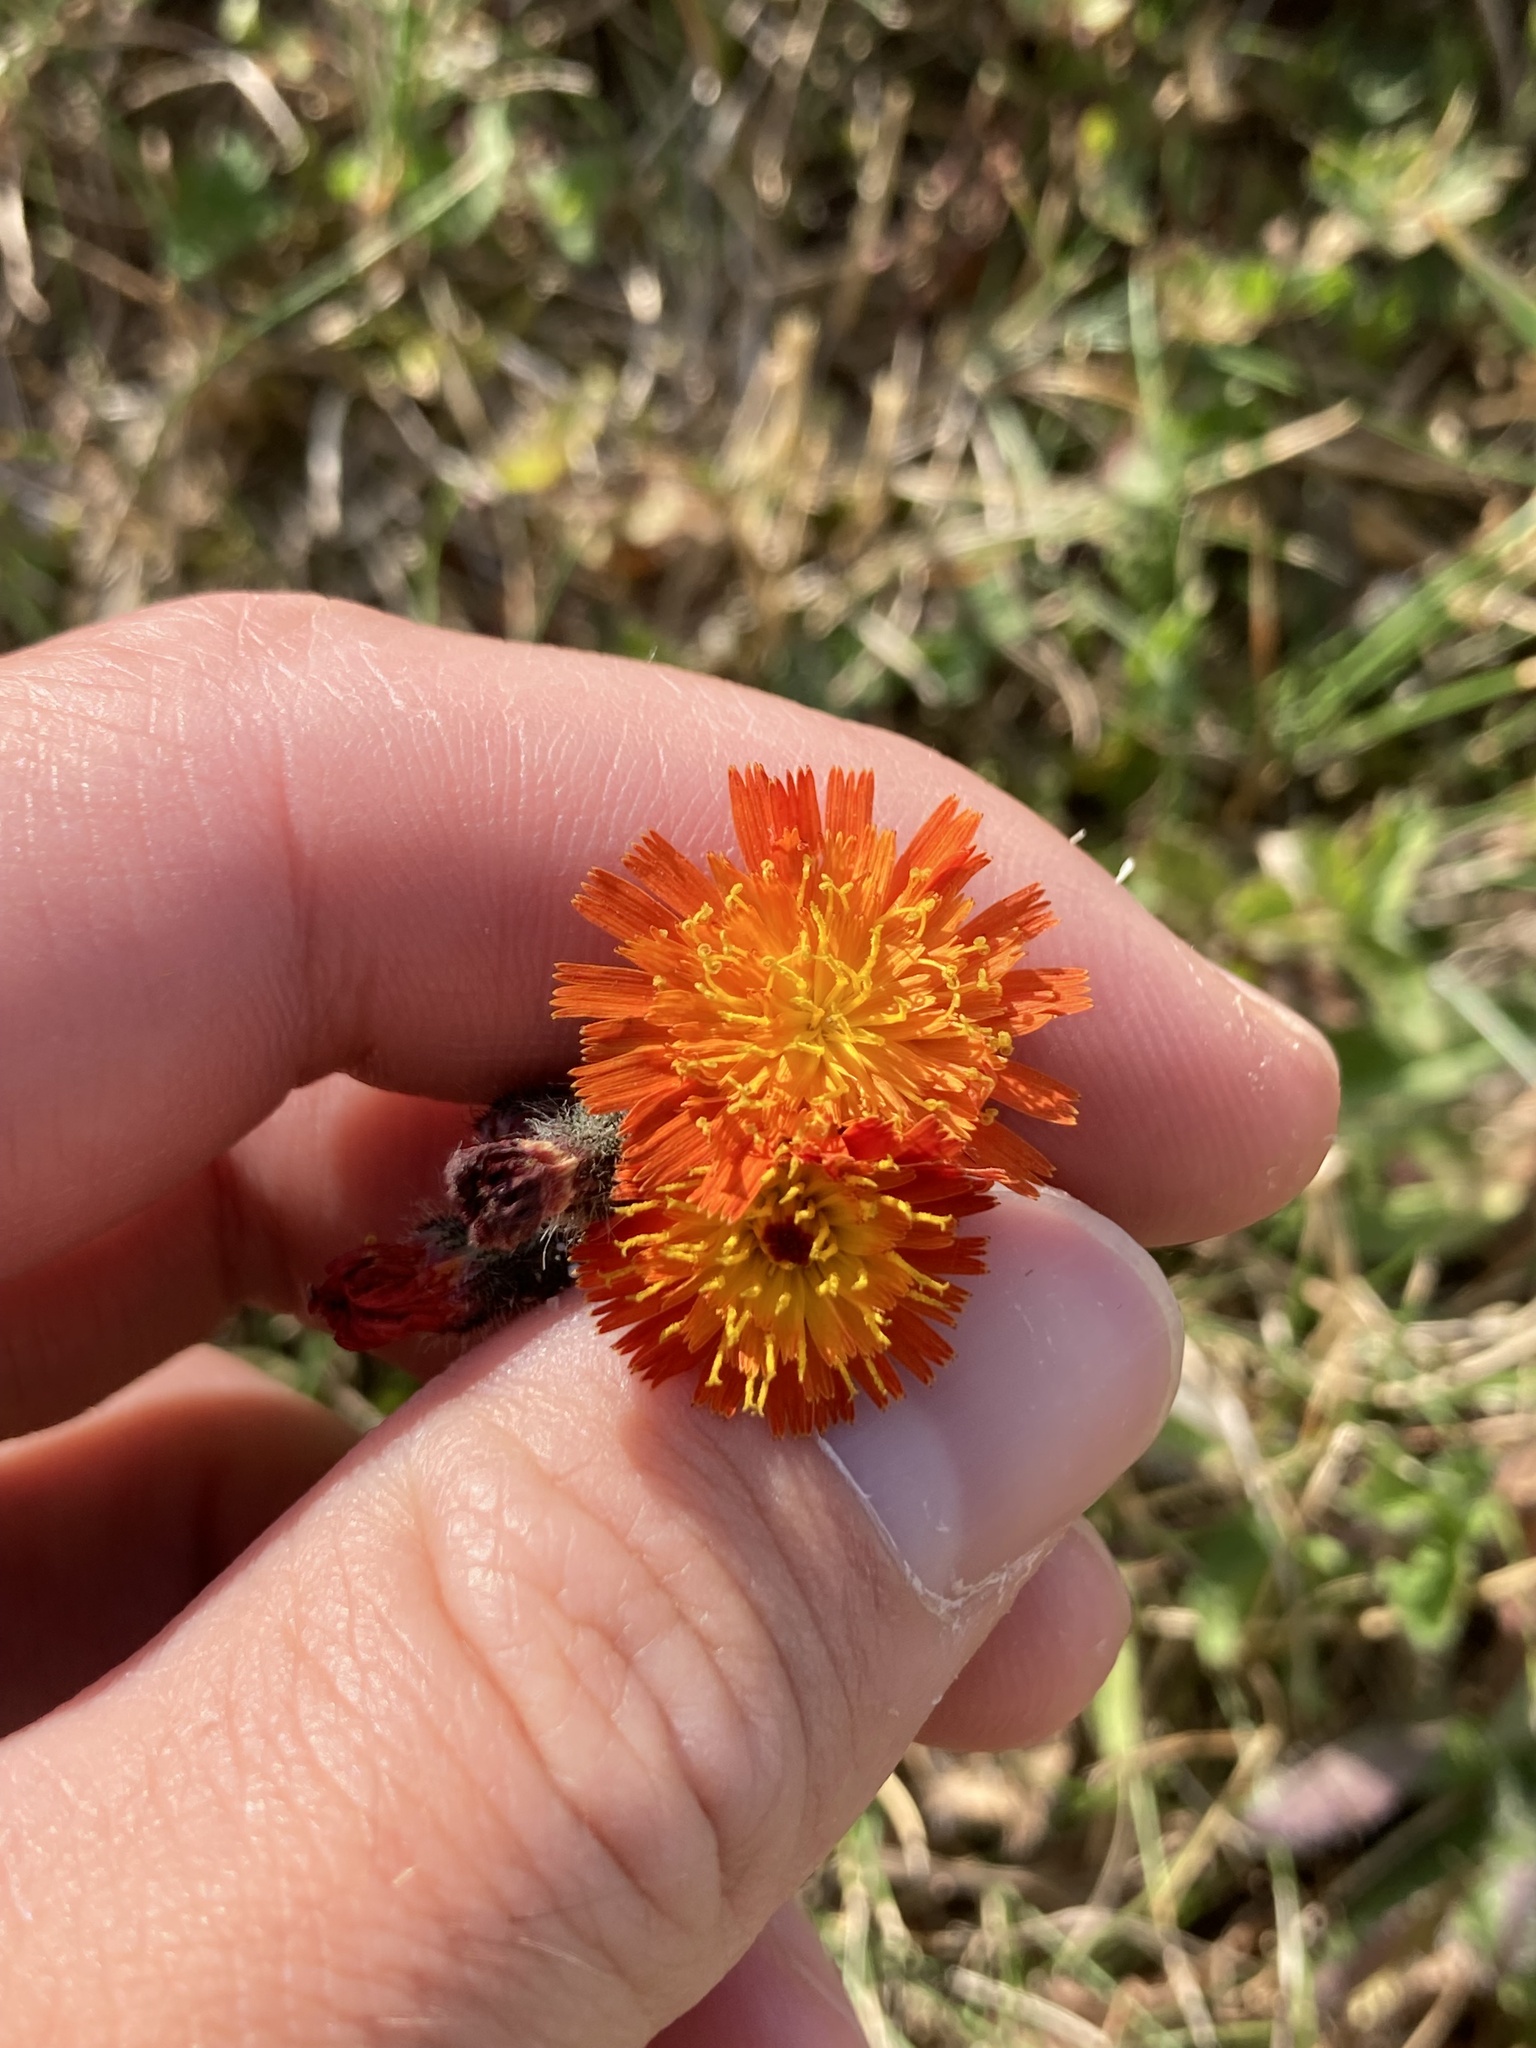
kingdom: Plantae
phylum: Tracheophyta
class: Magnoliopsida
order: Asterales
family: Asteraceae
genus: Pilosella
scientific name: Pilosella aurantiaca
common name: Fox-and-cubs
